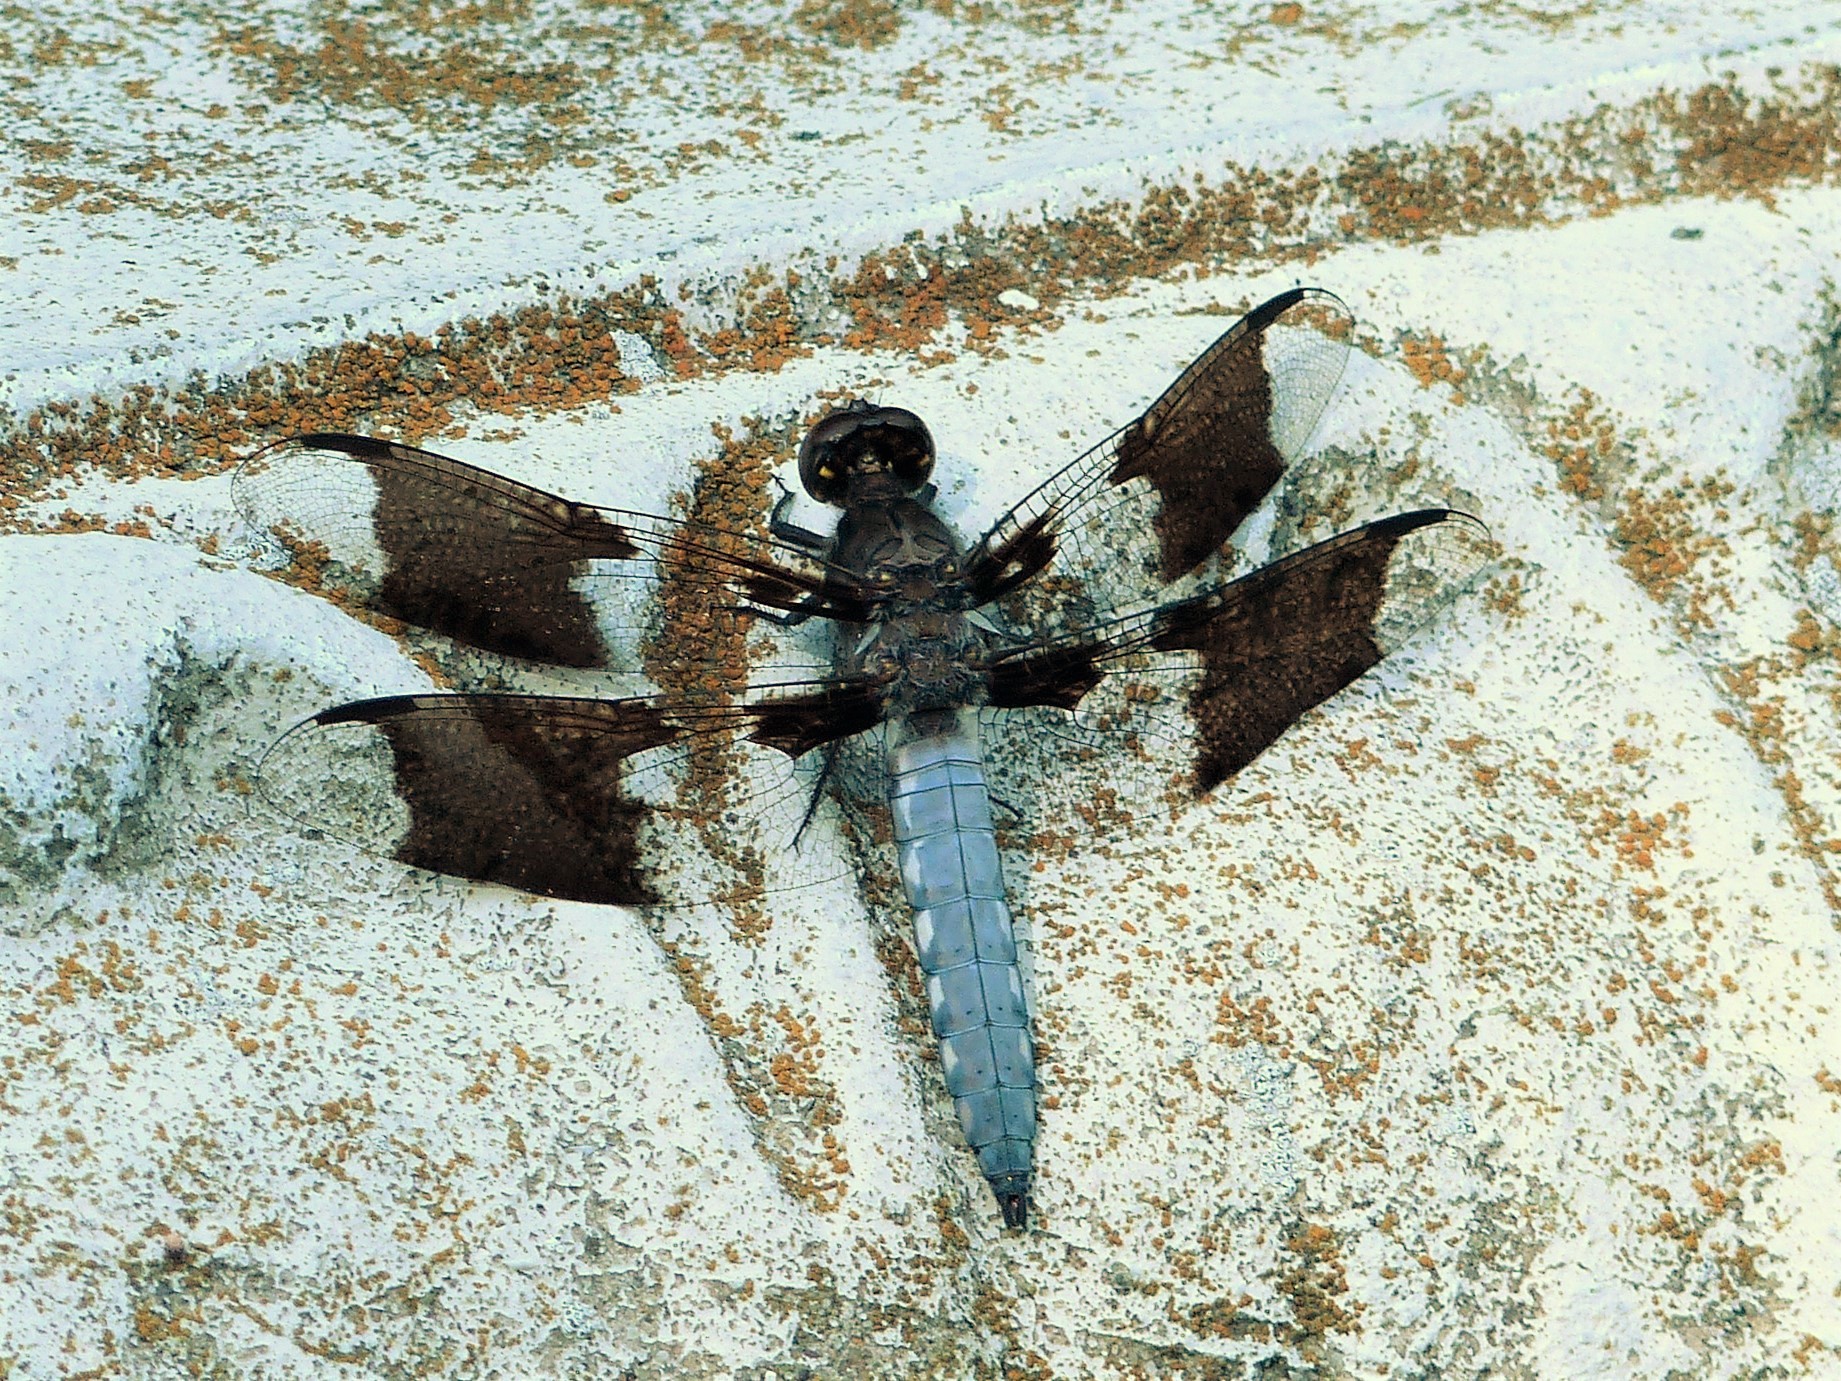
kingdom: Animalia
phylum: Arthropoda
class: Insecta
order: Odonata
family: Libellulidae
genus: Plathemis
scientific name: Plathemis lydia
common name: Common whitetail
